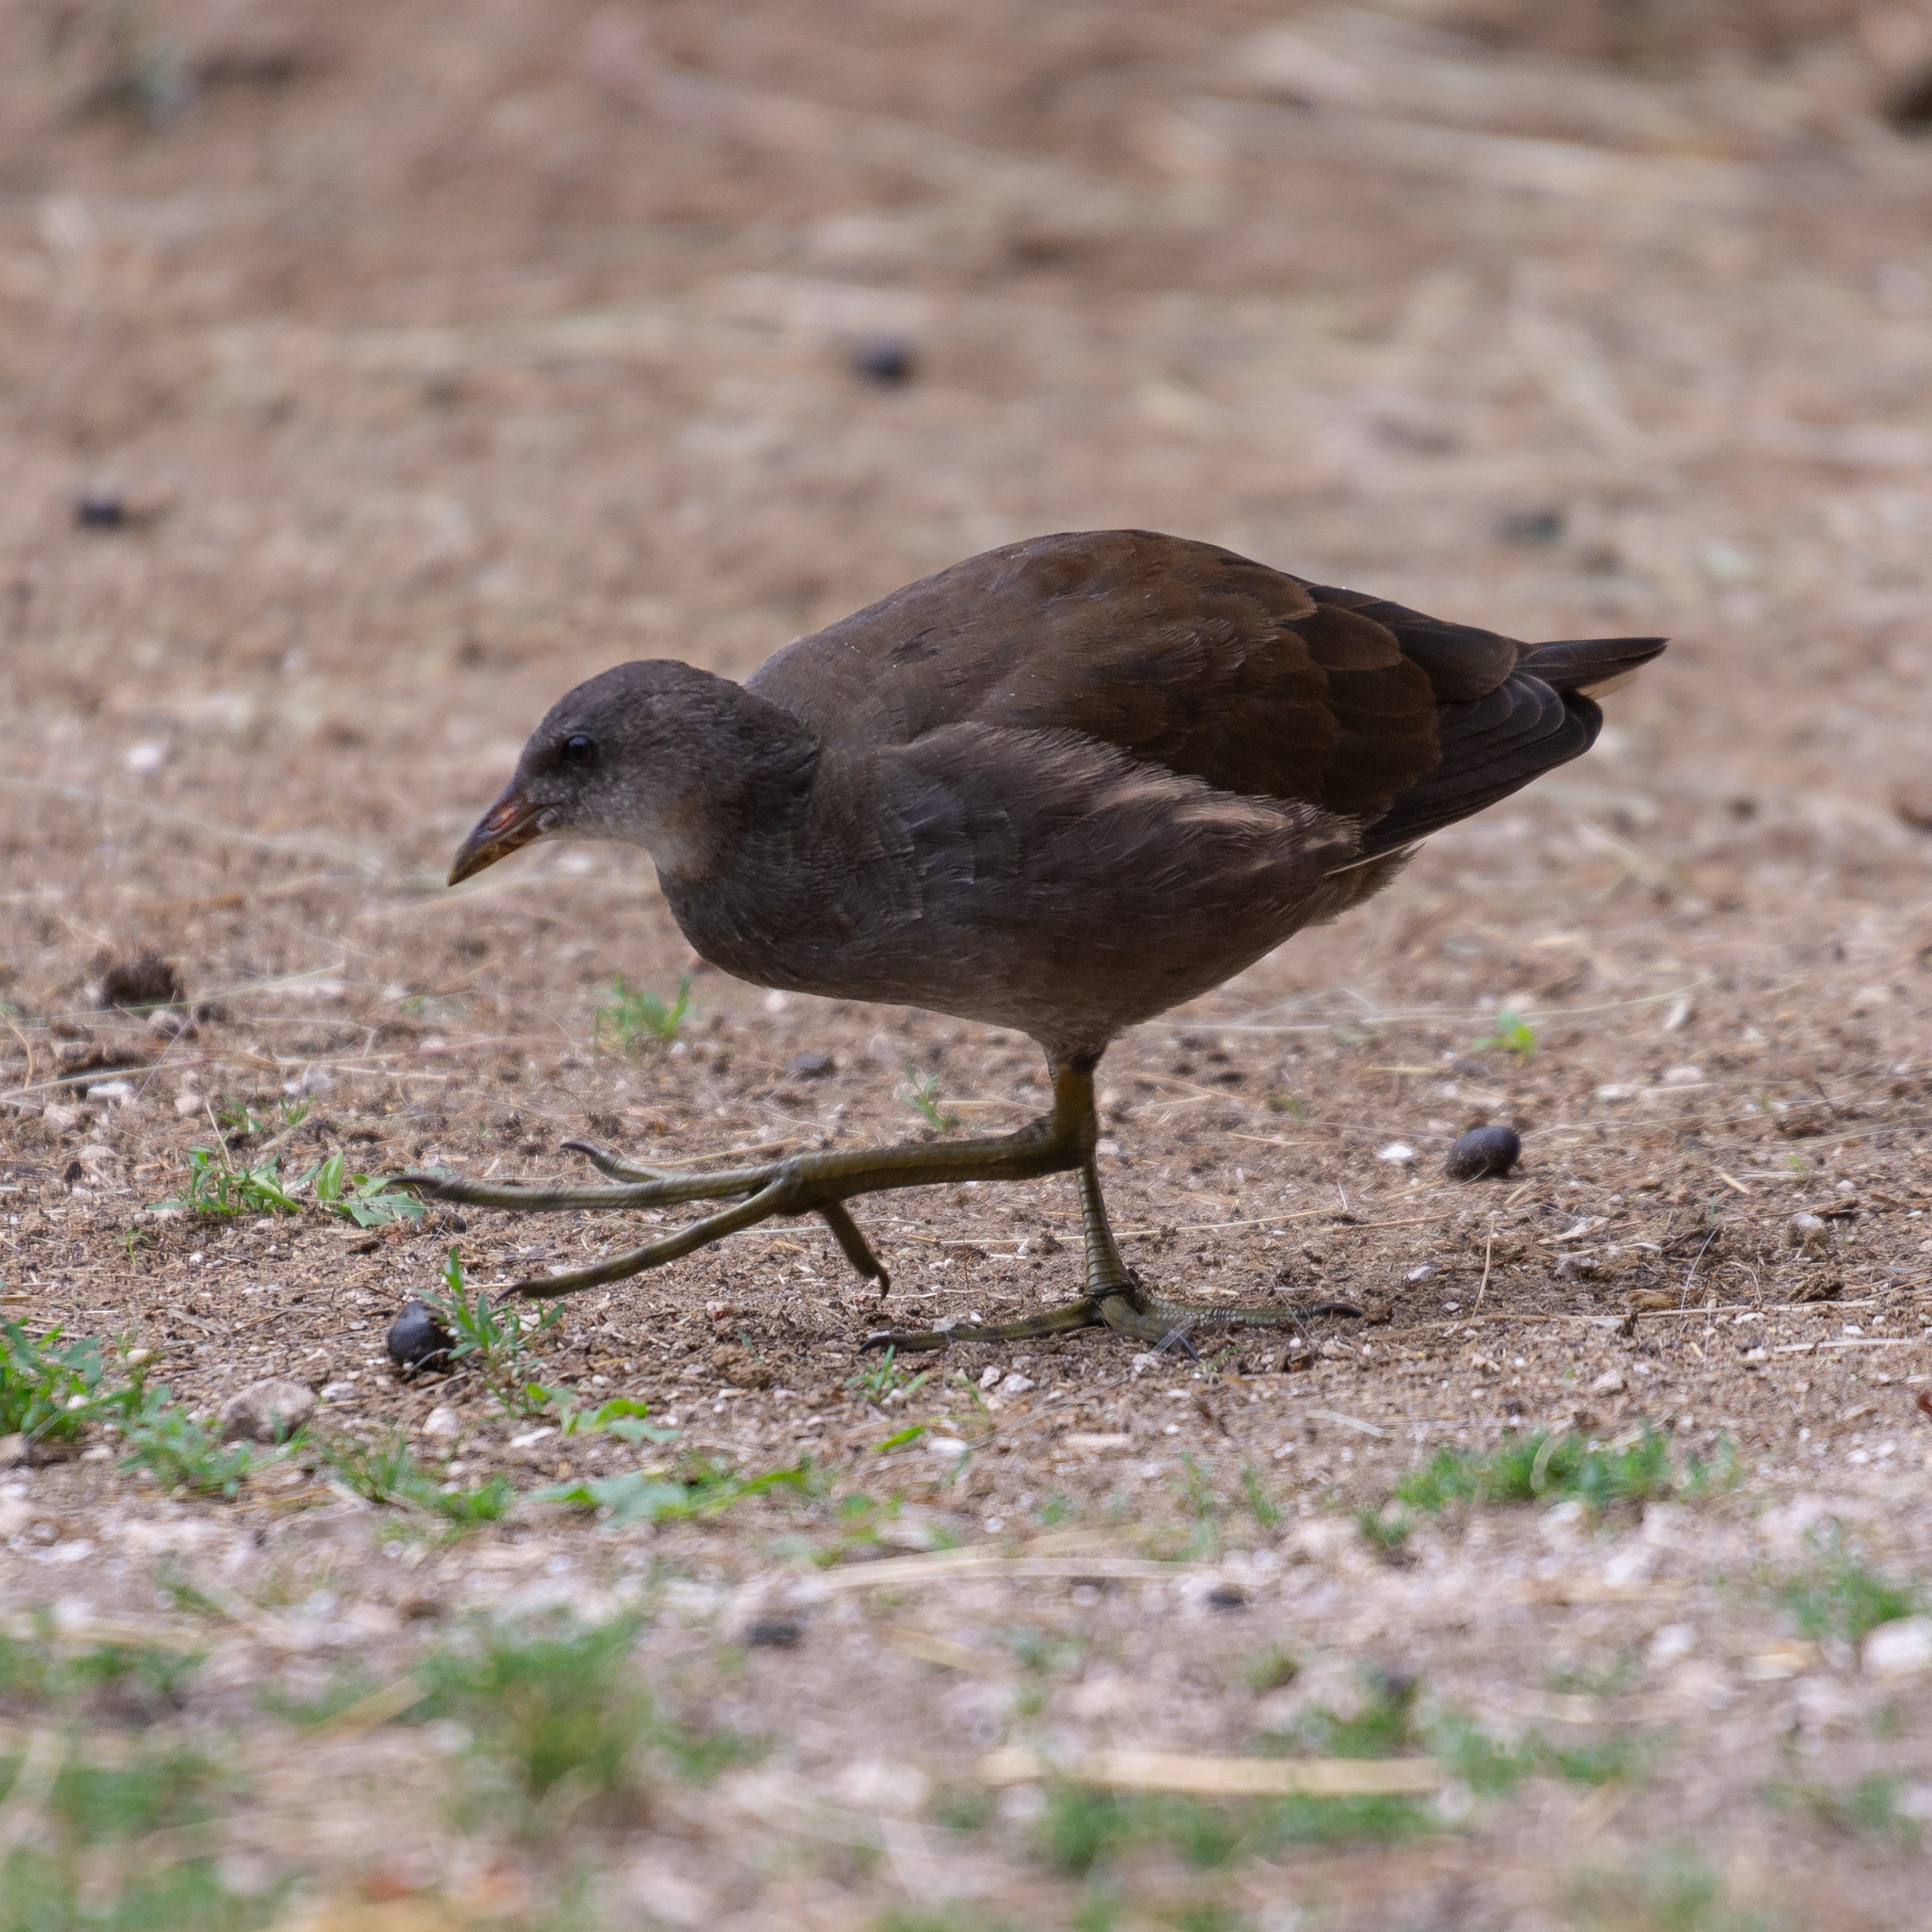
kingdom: Animalia
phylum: Chordata
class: Aves
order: Gruiformes
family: Rallidae
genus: Gallinula
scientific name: Gallinula chloropus
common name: Common moorhen
